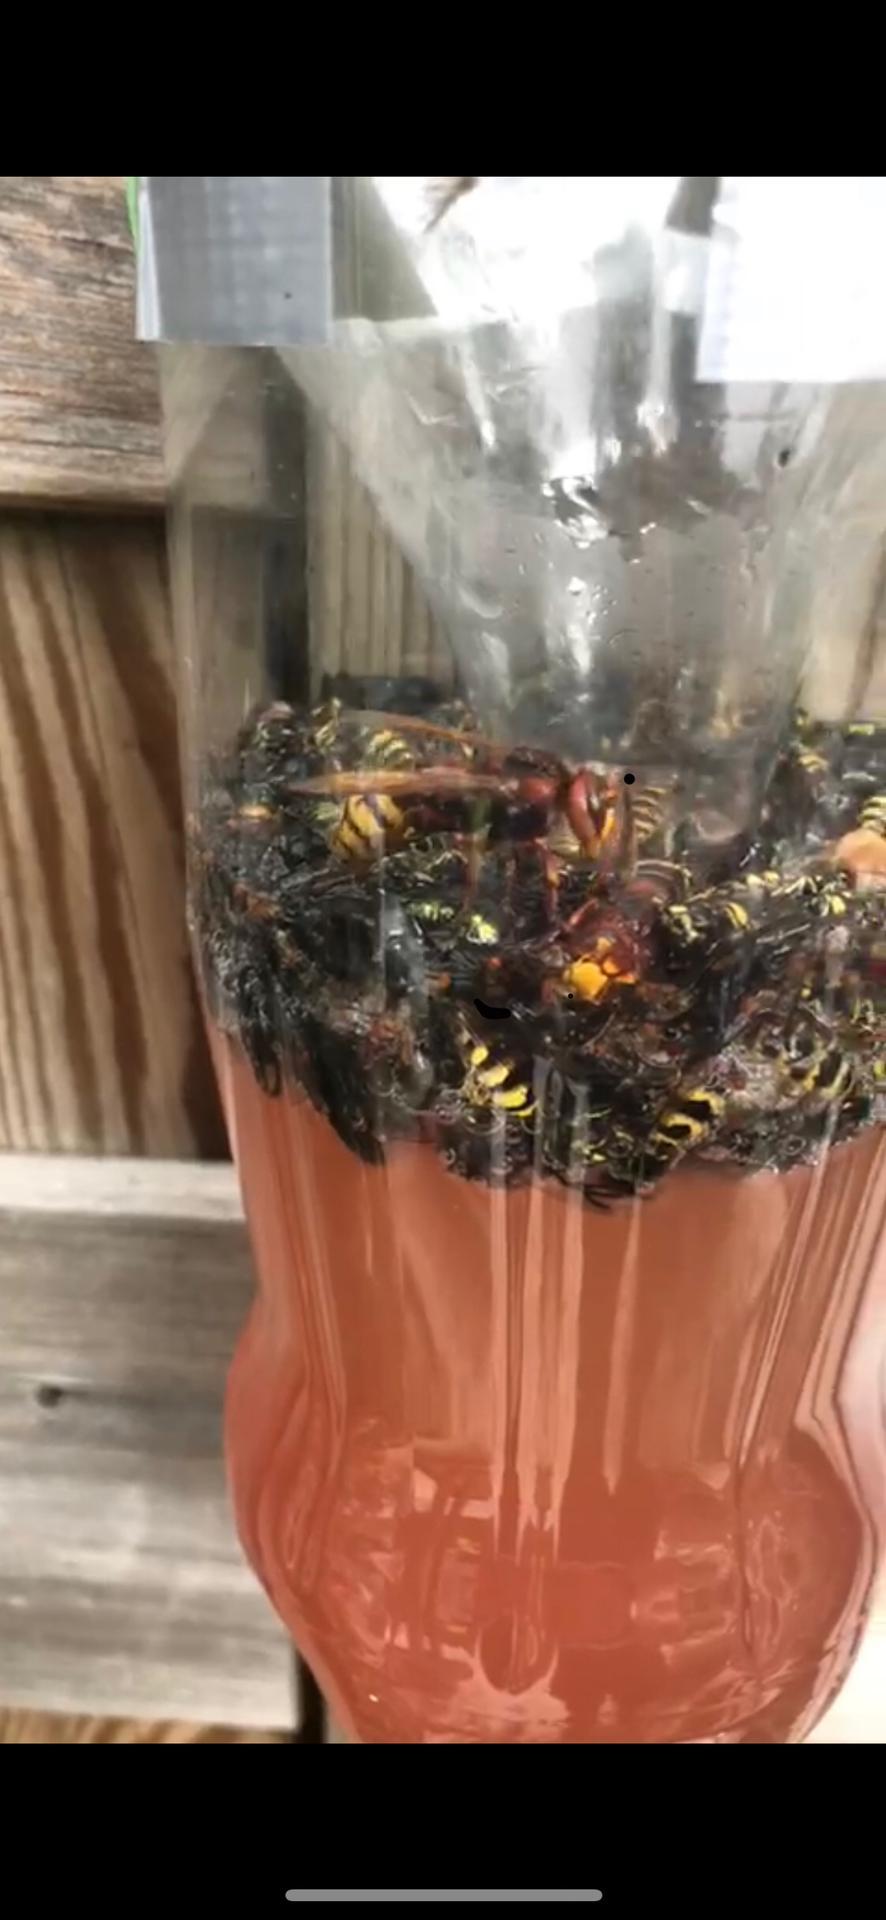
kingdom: Animalia
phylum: Arthropoda
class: Insecta
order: Hymenoptera
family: Vespidae
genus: Vespa
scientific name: Vespa crabro
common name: Hornet
